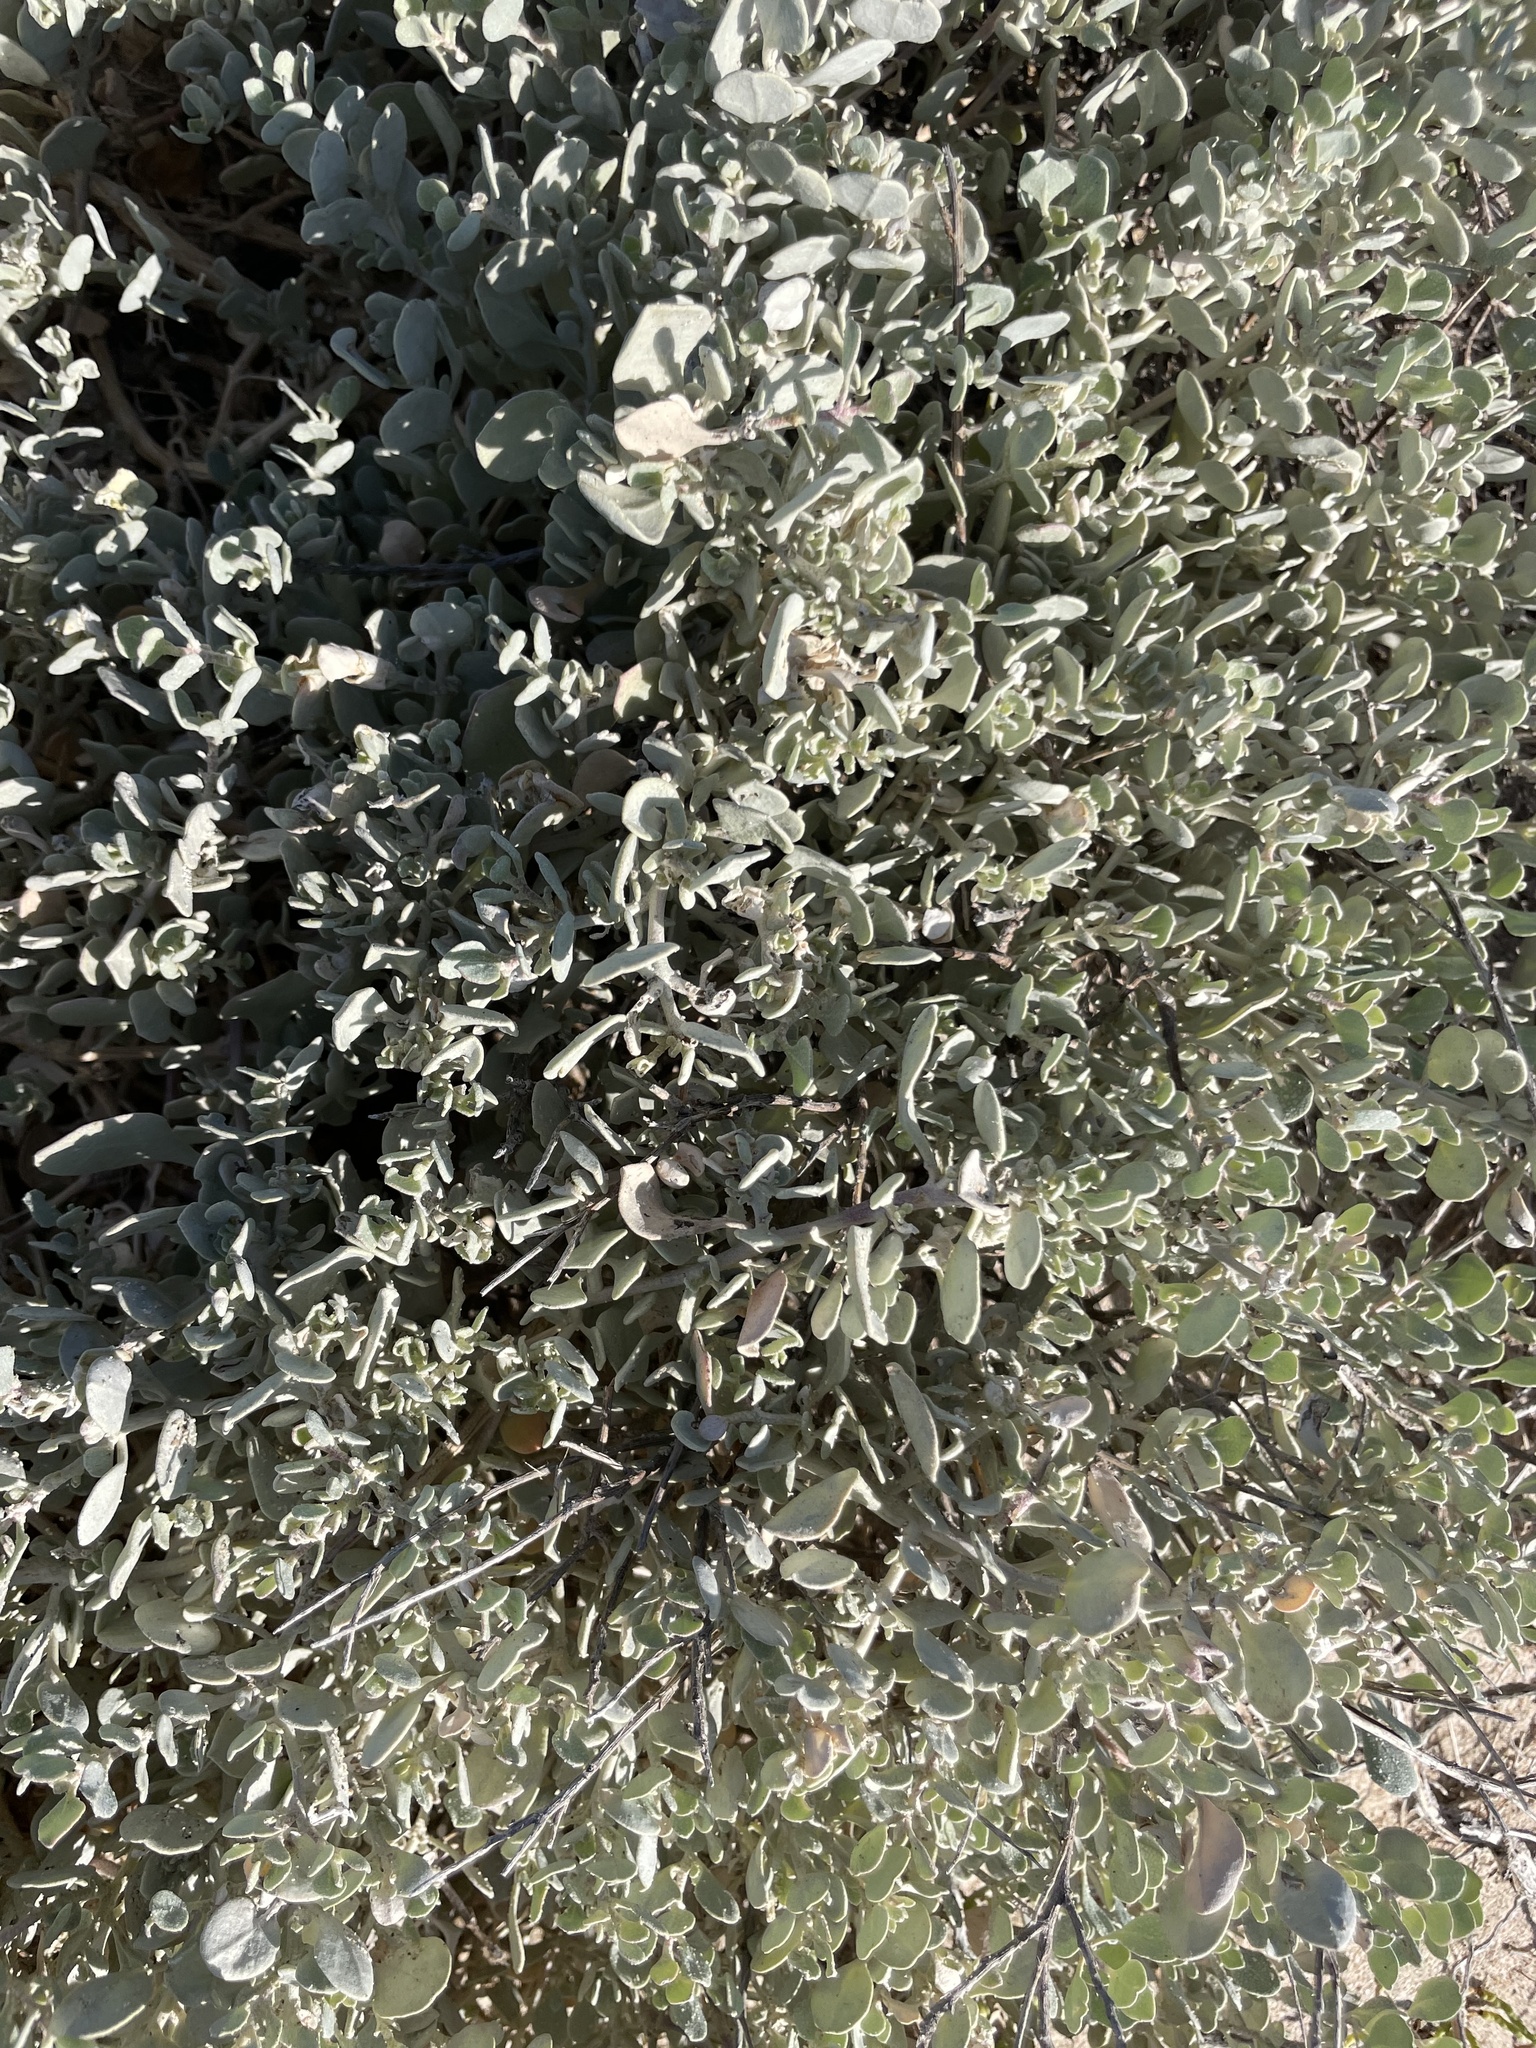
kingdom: Plantae
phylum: Tracheophyta
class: Magnoliopsida
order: Caryophyllales
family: Amaranthaceae
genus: Atriplex
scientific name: Atriplex barclayana
